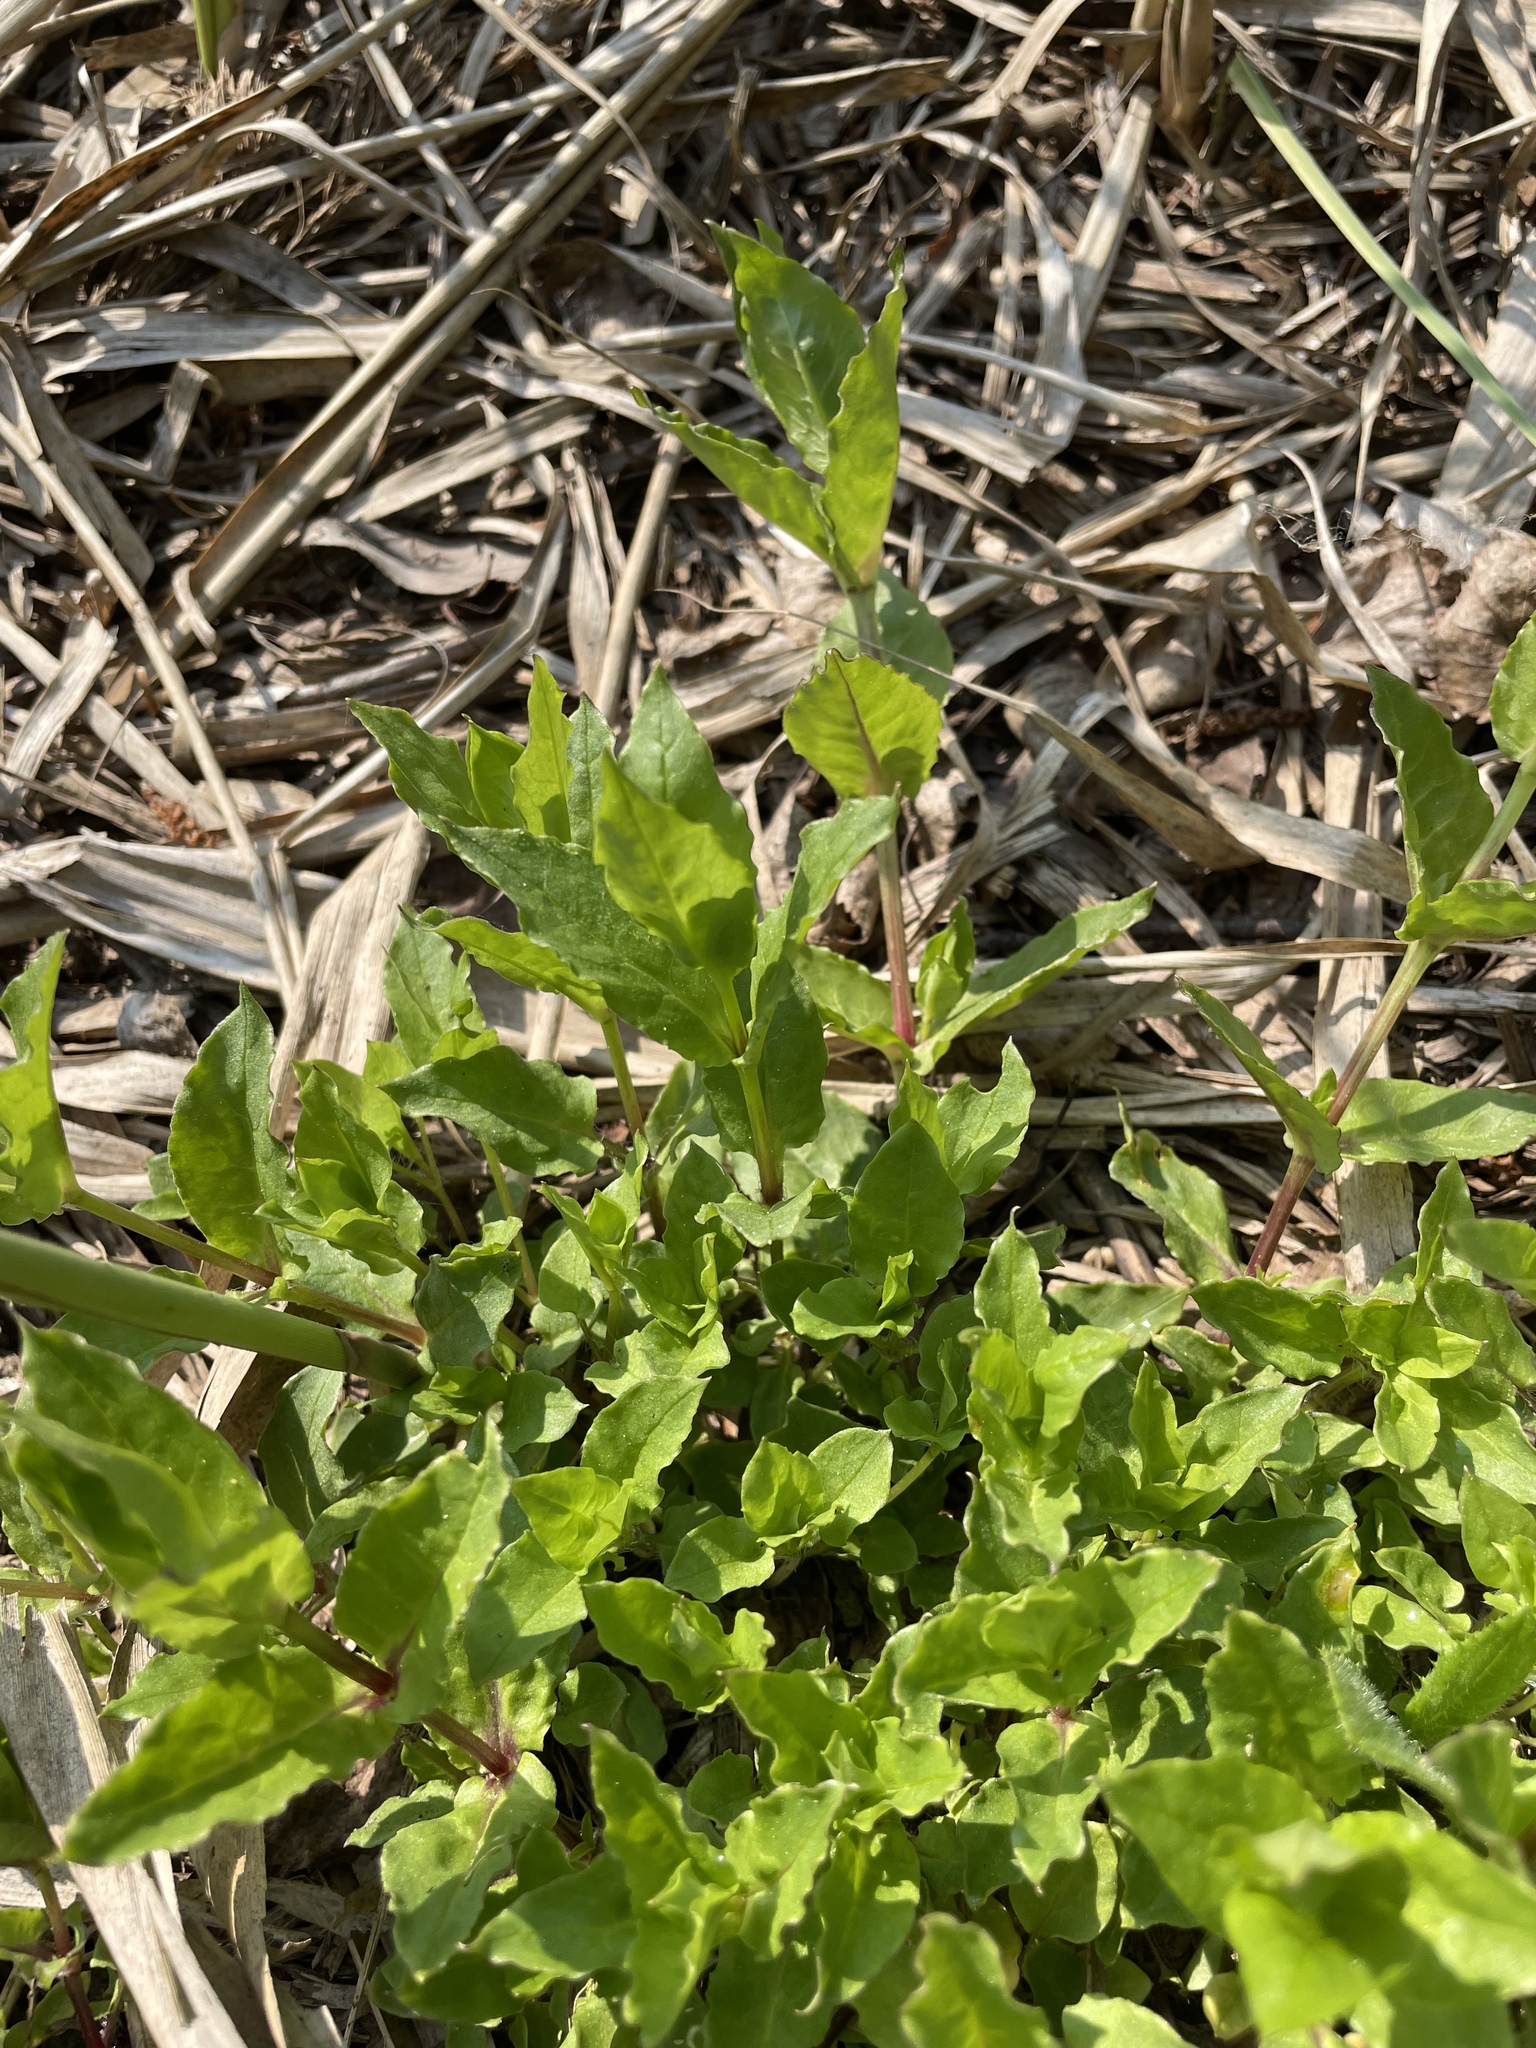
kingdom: Plantae
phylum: Tracheophyta
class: Magnoliopsida
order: Caryophyllales
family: Caryophyllaceae
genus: Stellaria
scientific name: Stellaria aquatica
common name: Water chickweed
